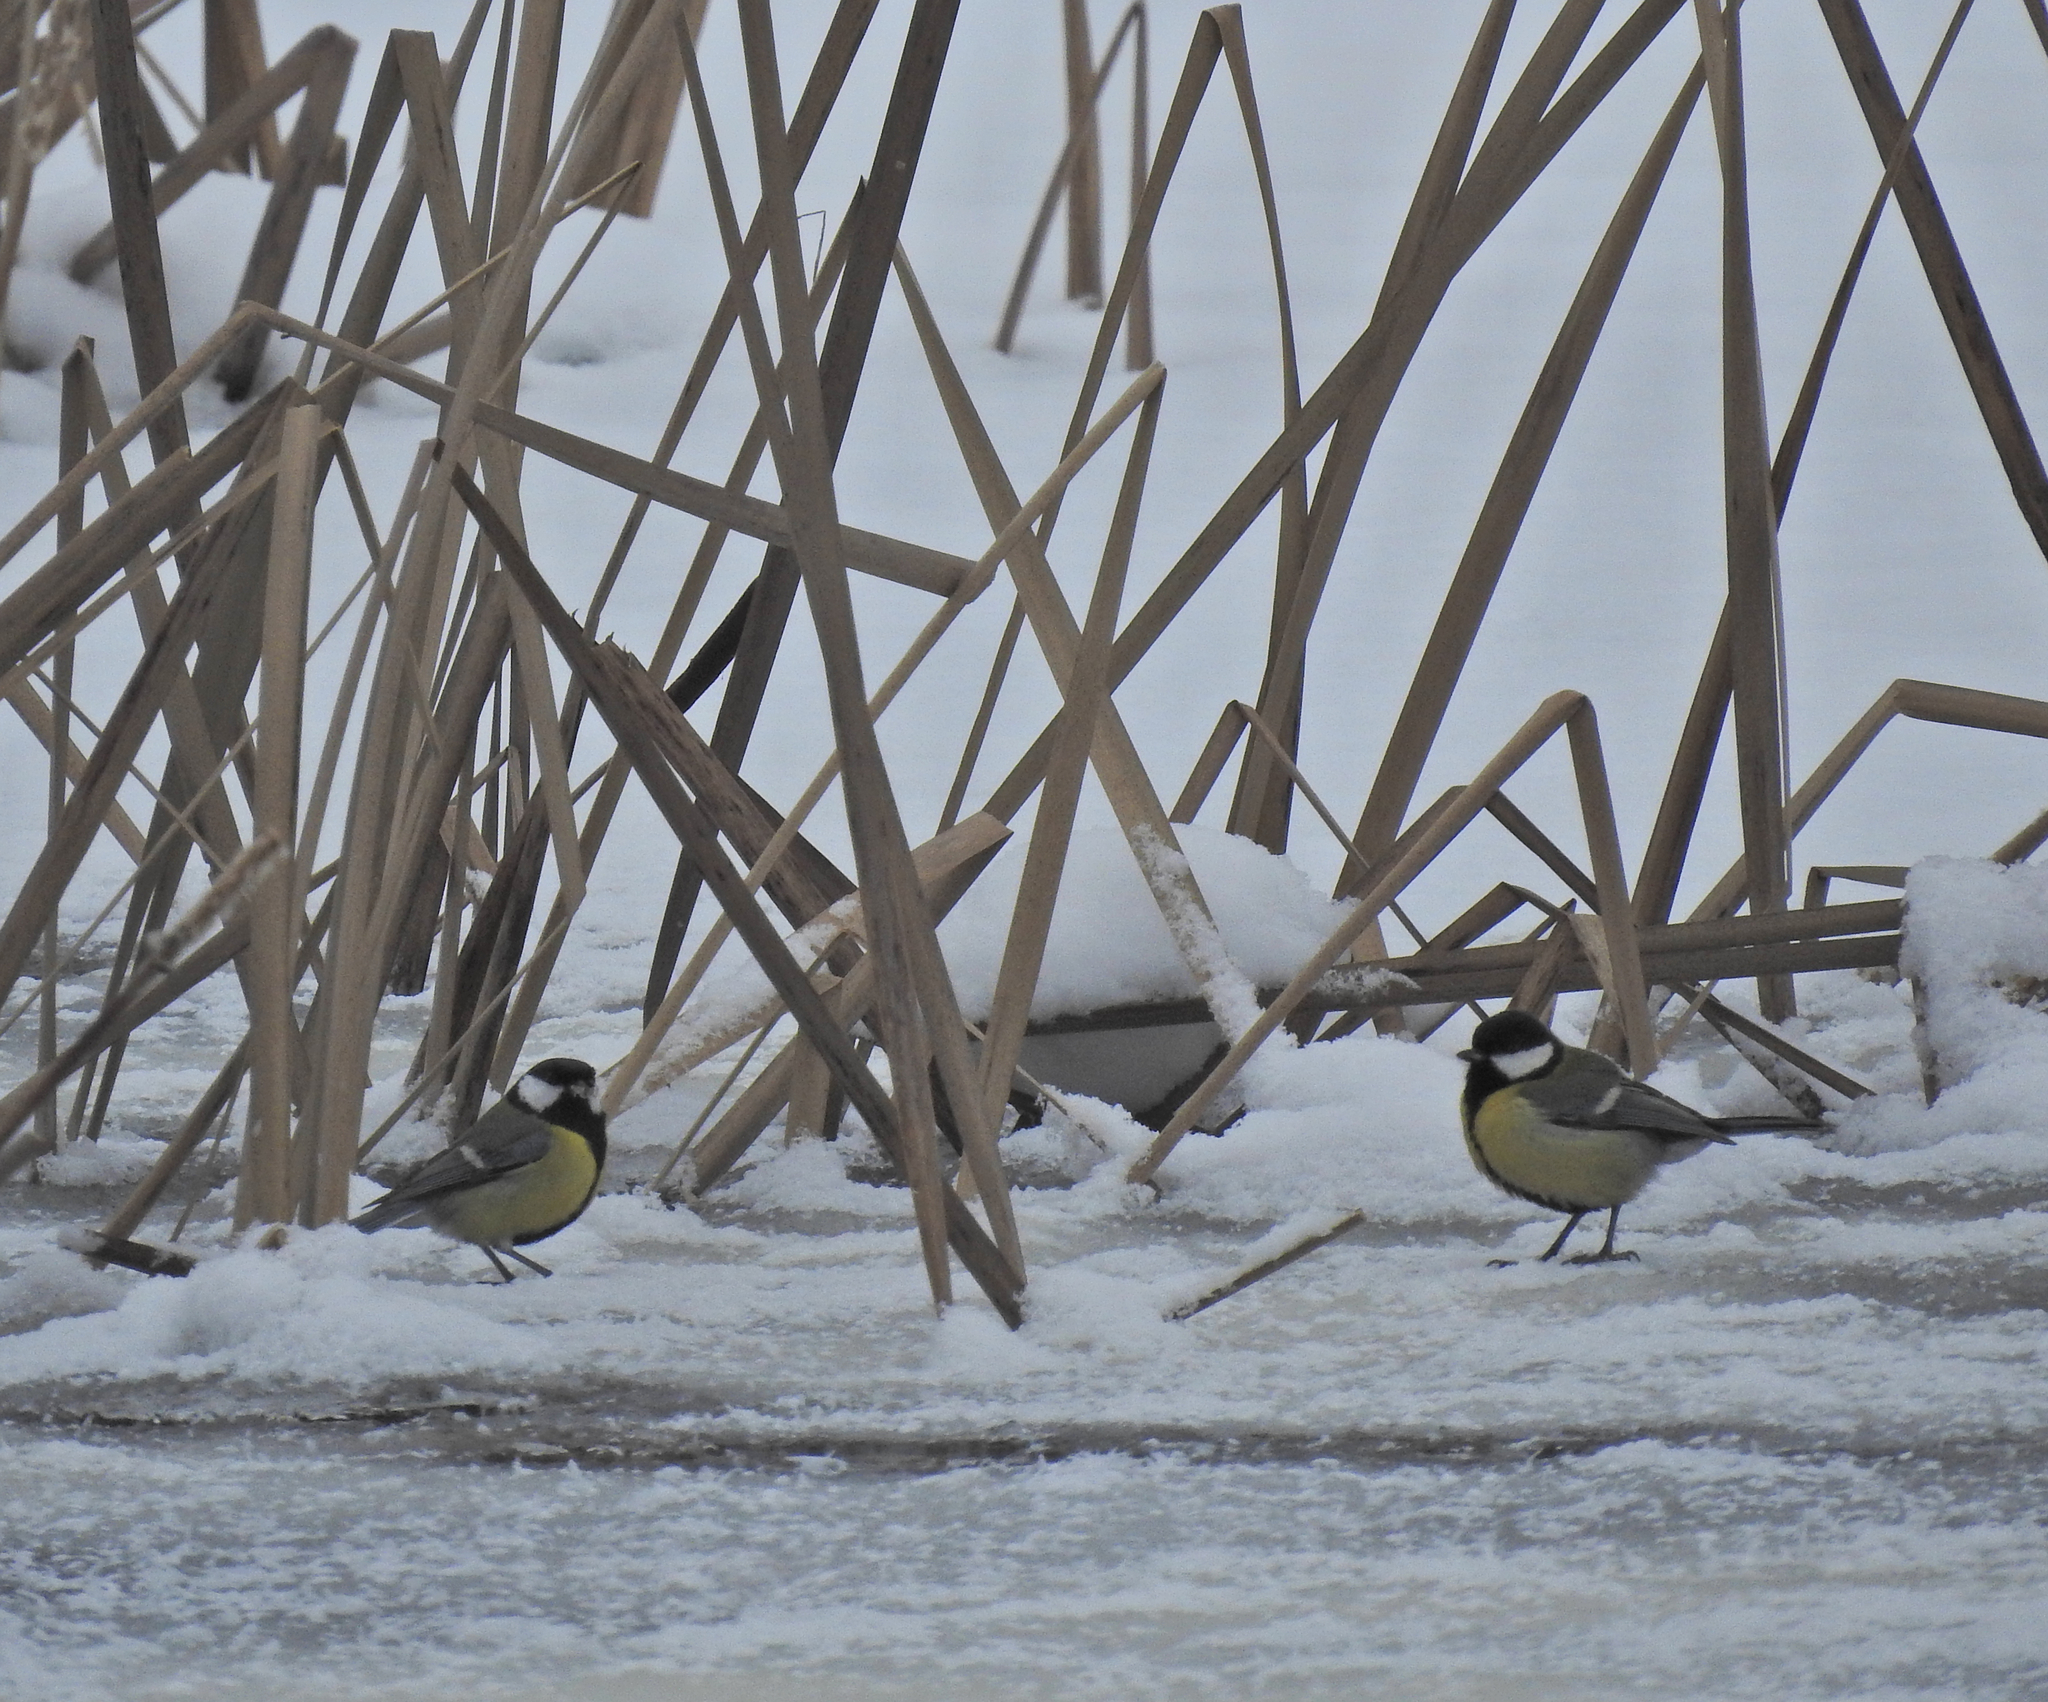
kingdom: Animalia
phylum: Chordata
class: Aves
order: Passeriformes
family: Paridae
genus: Parus
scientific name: Parus major
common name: Great tit
